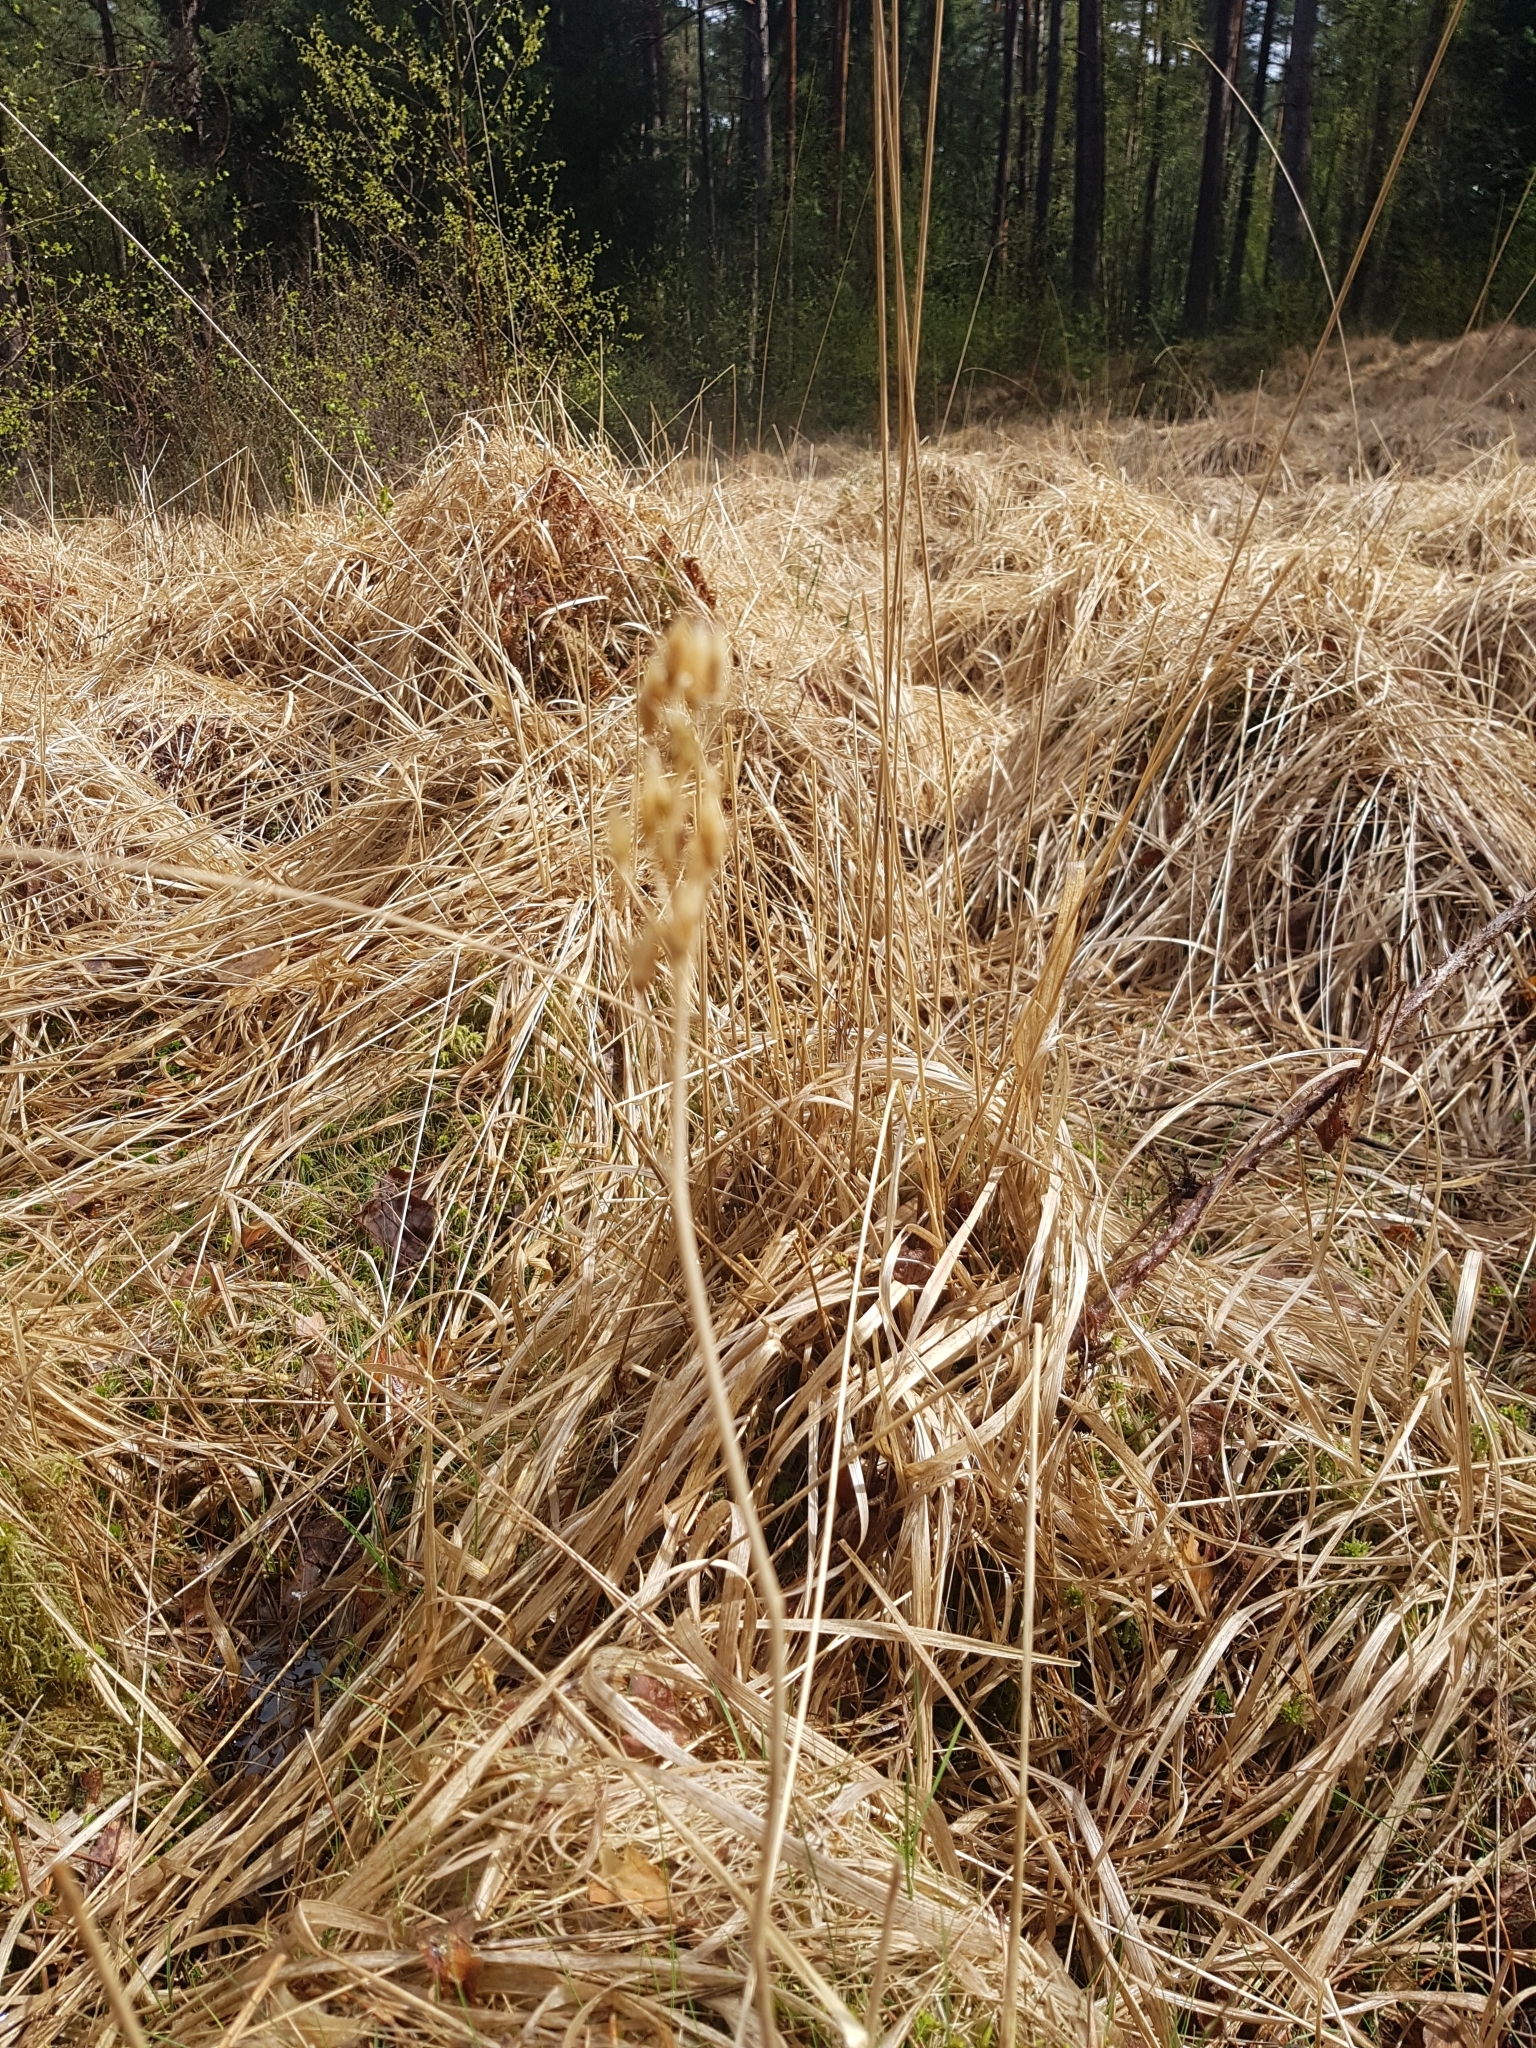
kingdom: Plantae
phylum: Tracheophyta
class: Liliopsida
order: Dioscoreales
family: Nartheciaceae
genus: Narthecium
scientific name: Narthecium ossifragum
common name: Bog asphodel
